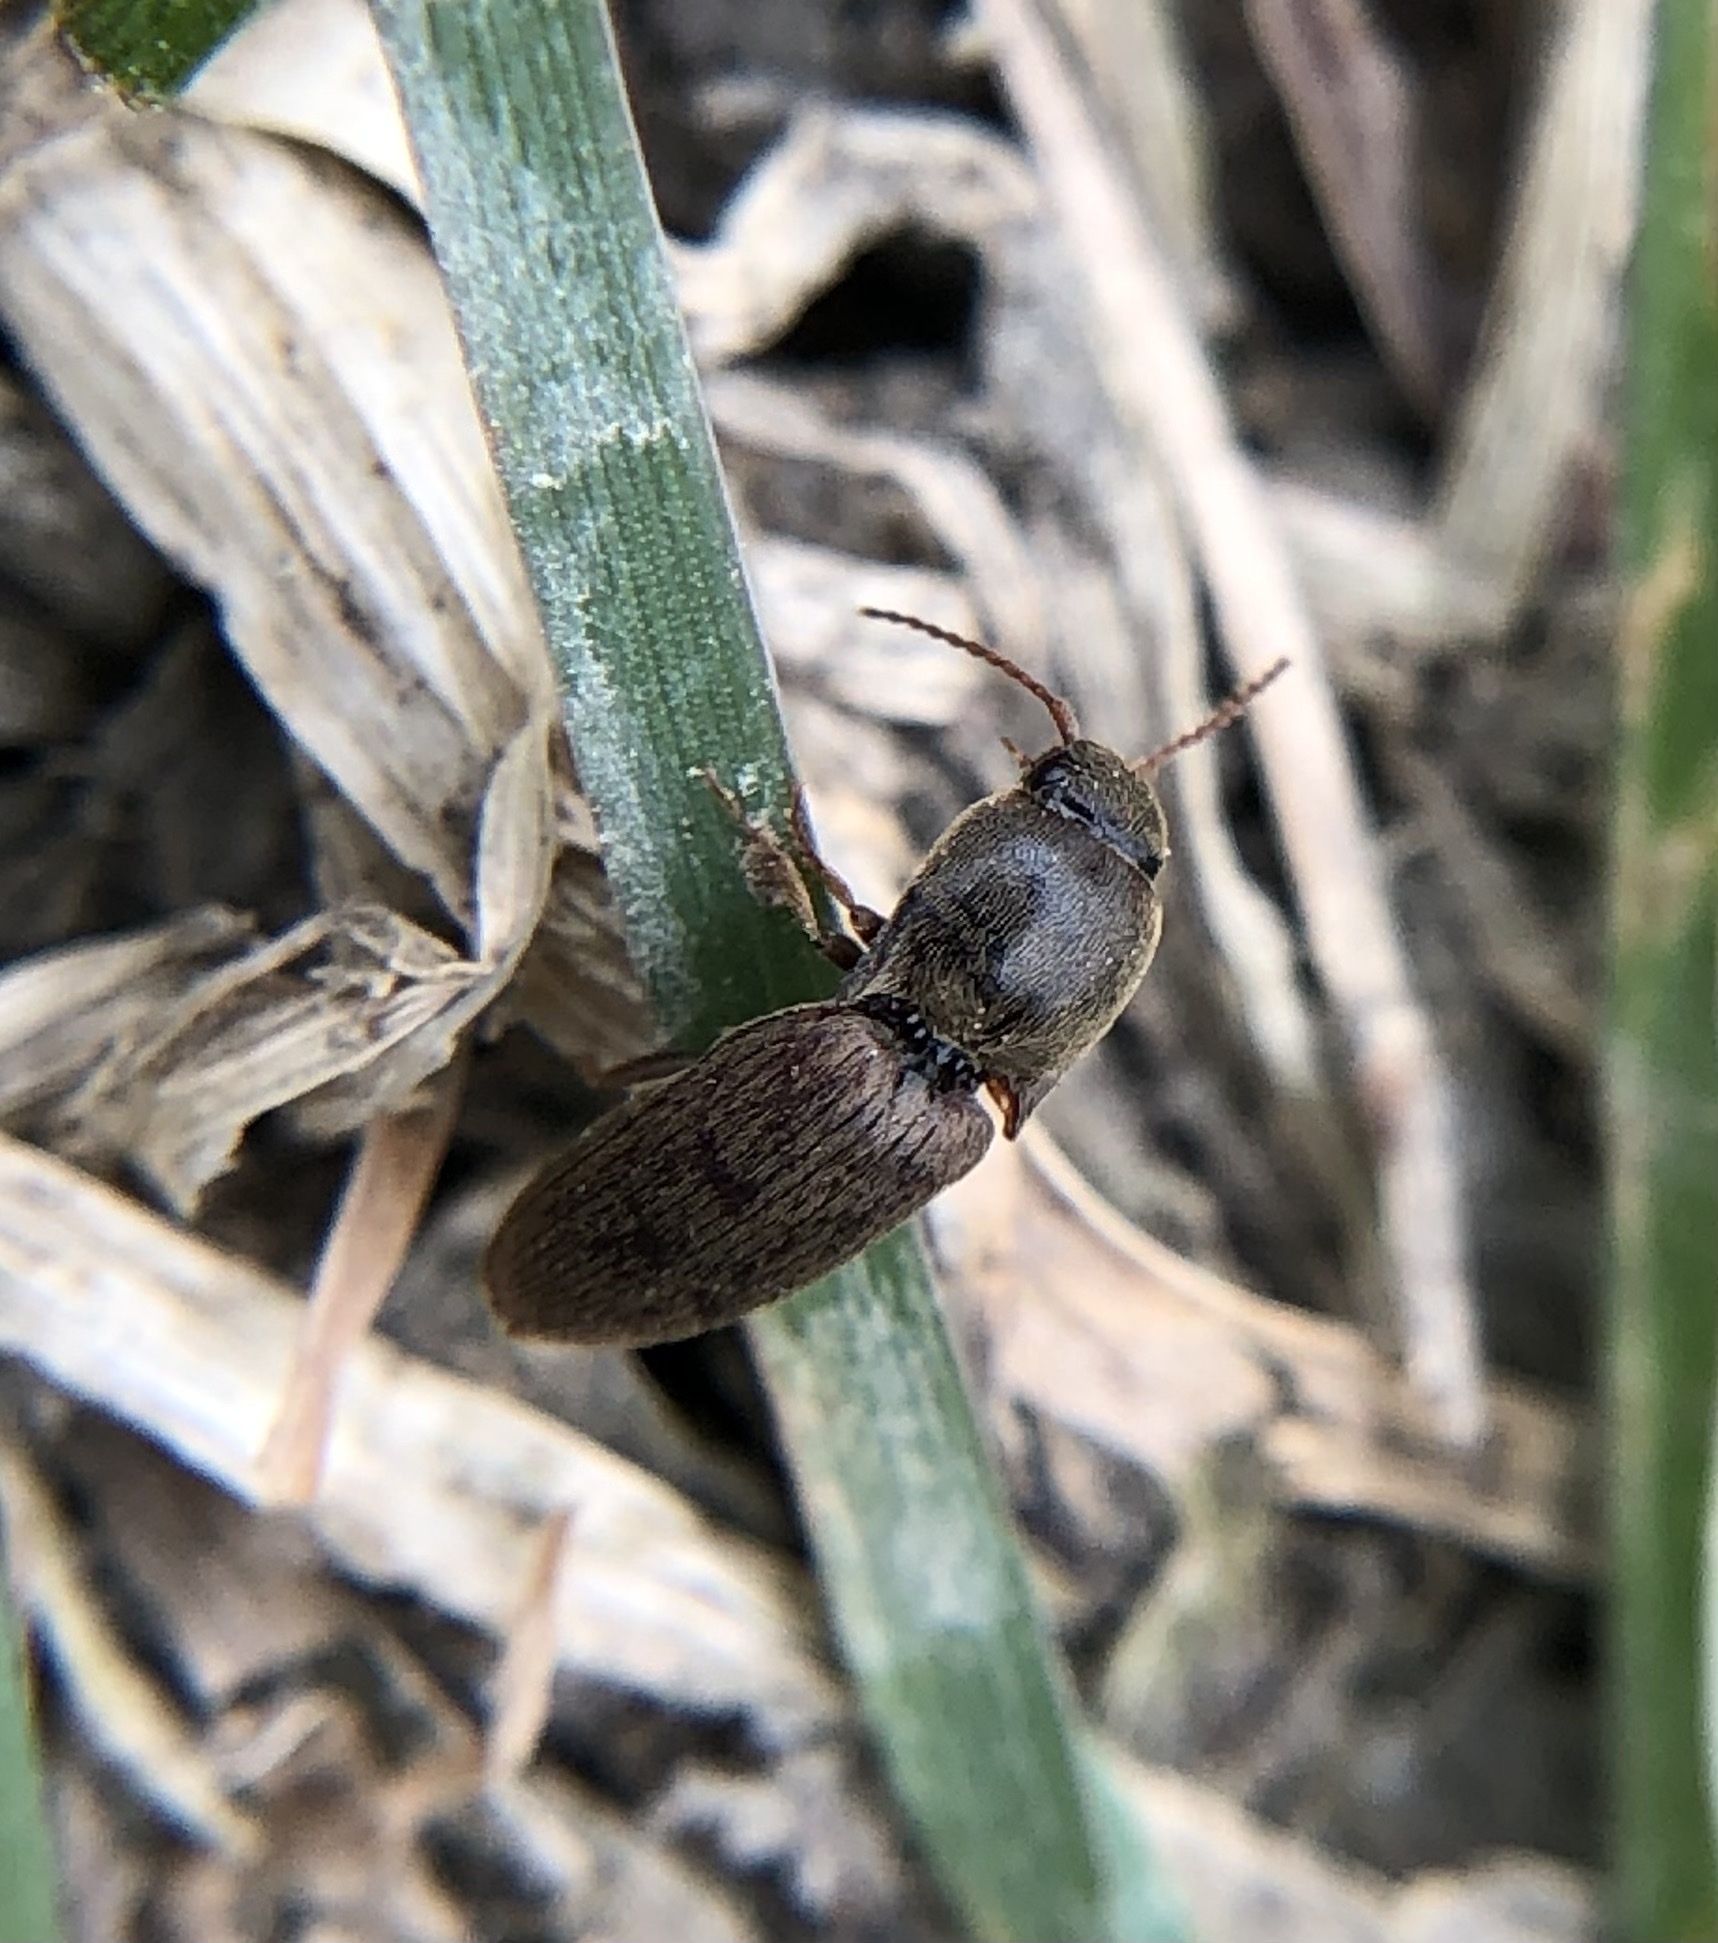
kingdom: Animalia
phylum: Arthropoda
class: Insecta
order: Coleoptera
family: Elateridae
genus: Agriotes
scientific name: Agriotes sputator
